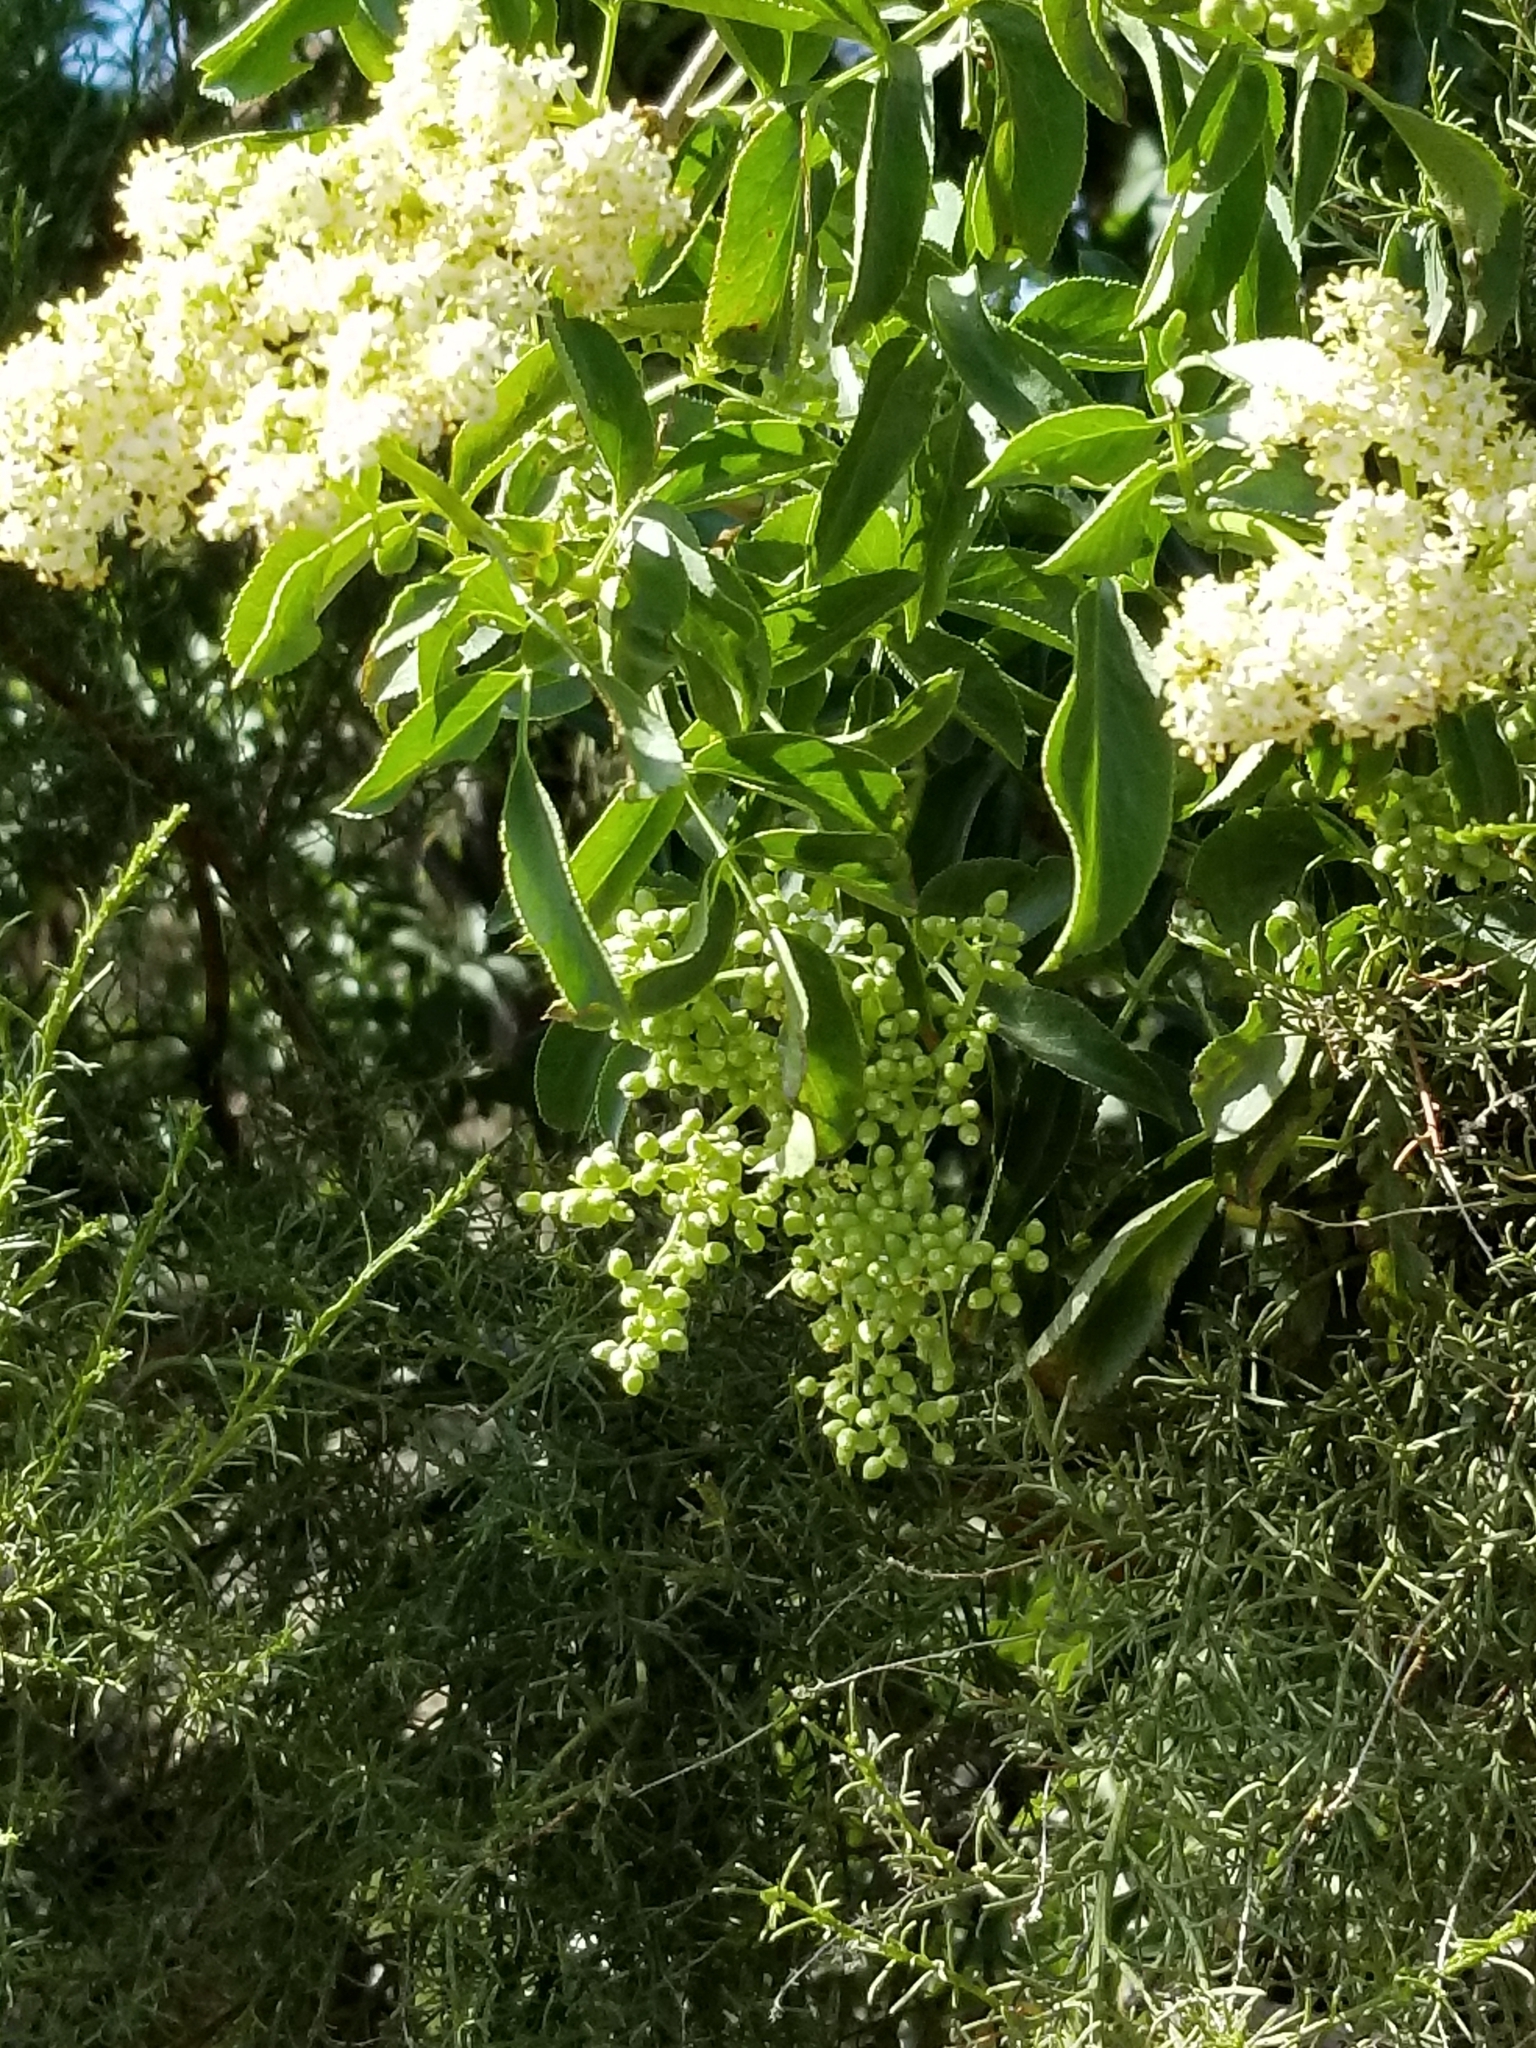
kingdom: Plantae
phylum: Tracheophyta
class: Magnoliopsida
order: Dipsacales
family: Viburnaceae
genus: Sambucus
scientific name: Sambucus cerulea
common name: Blue elder
